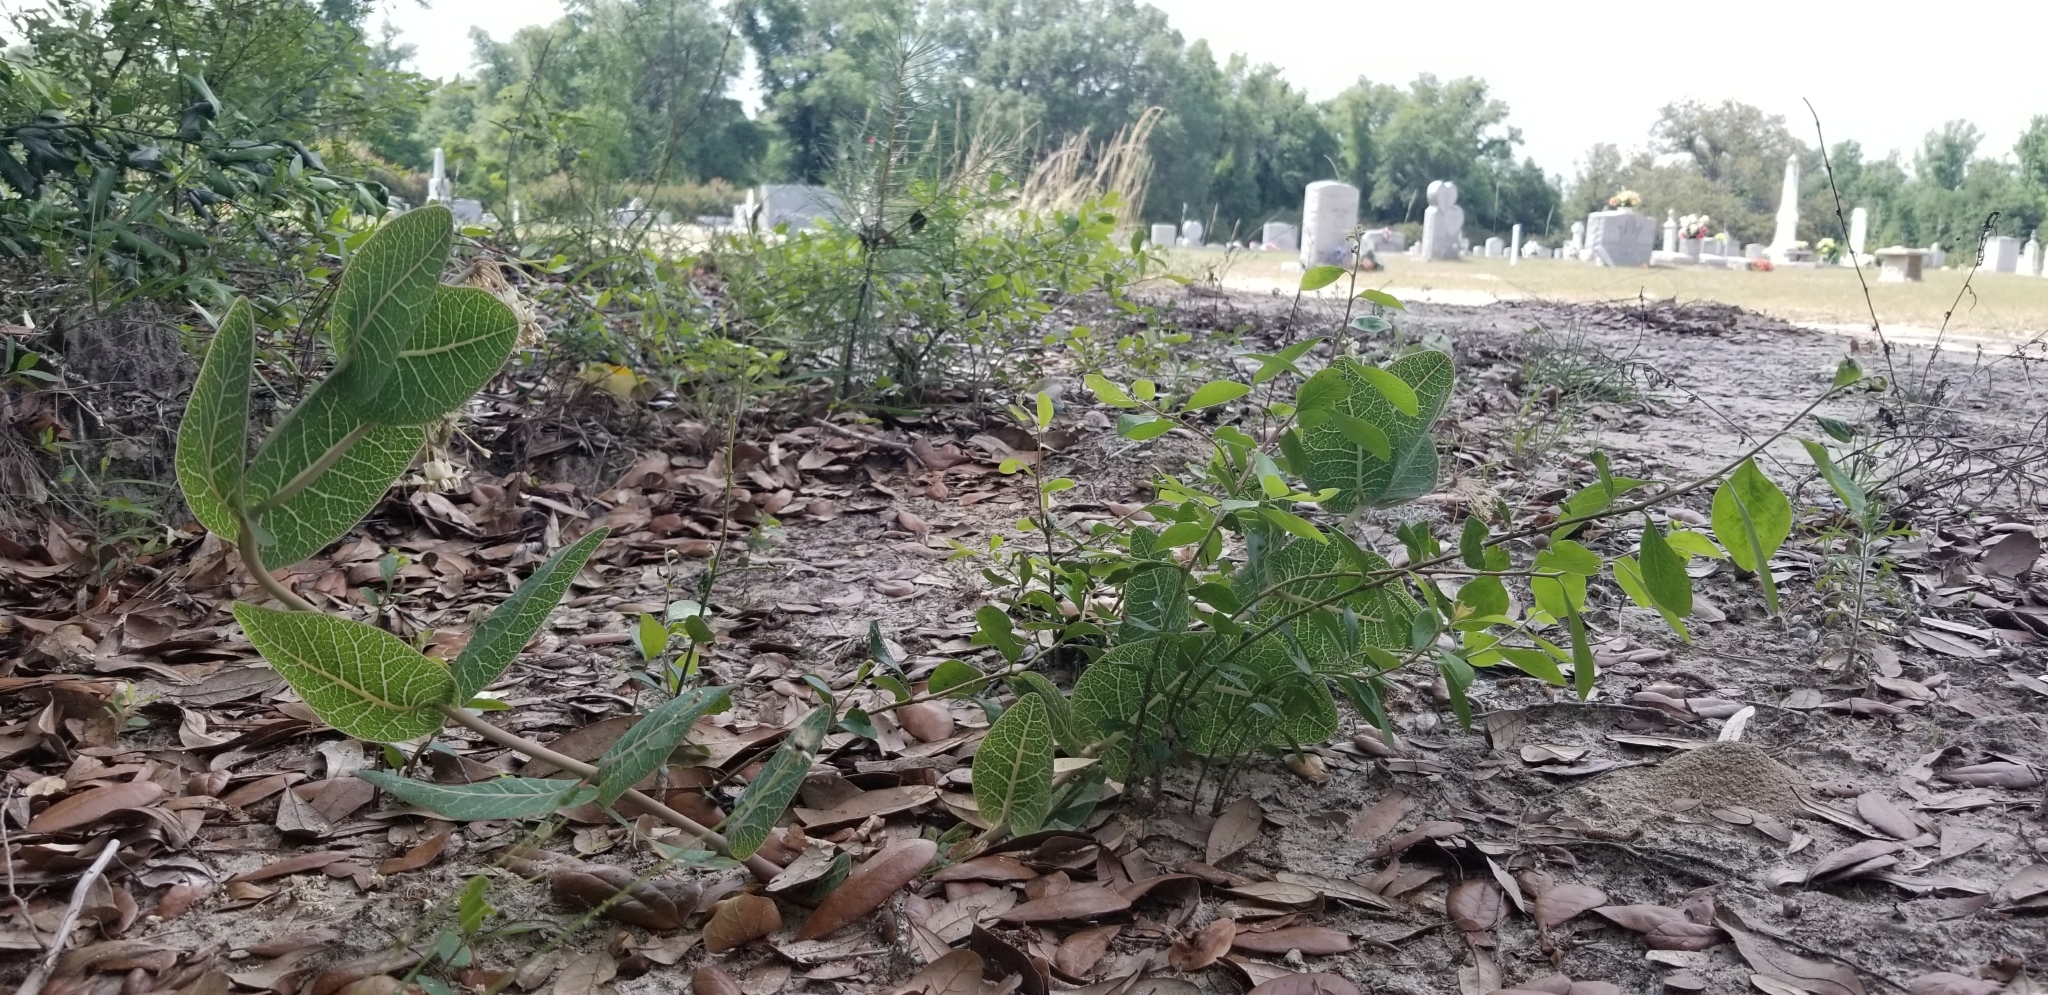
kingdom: Plantae
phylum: Tracheophyta
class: Magnoliopsida
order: Gentianales
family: Apocynaceae
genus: Asclepias
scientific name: Asclepias humistrata
